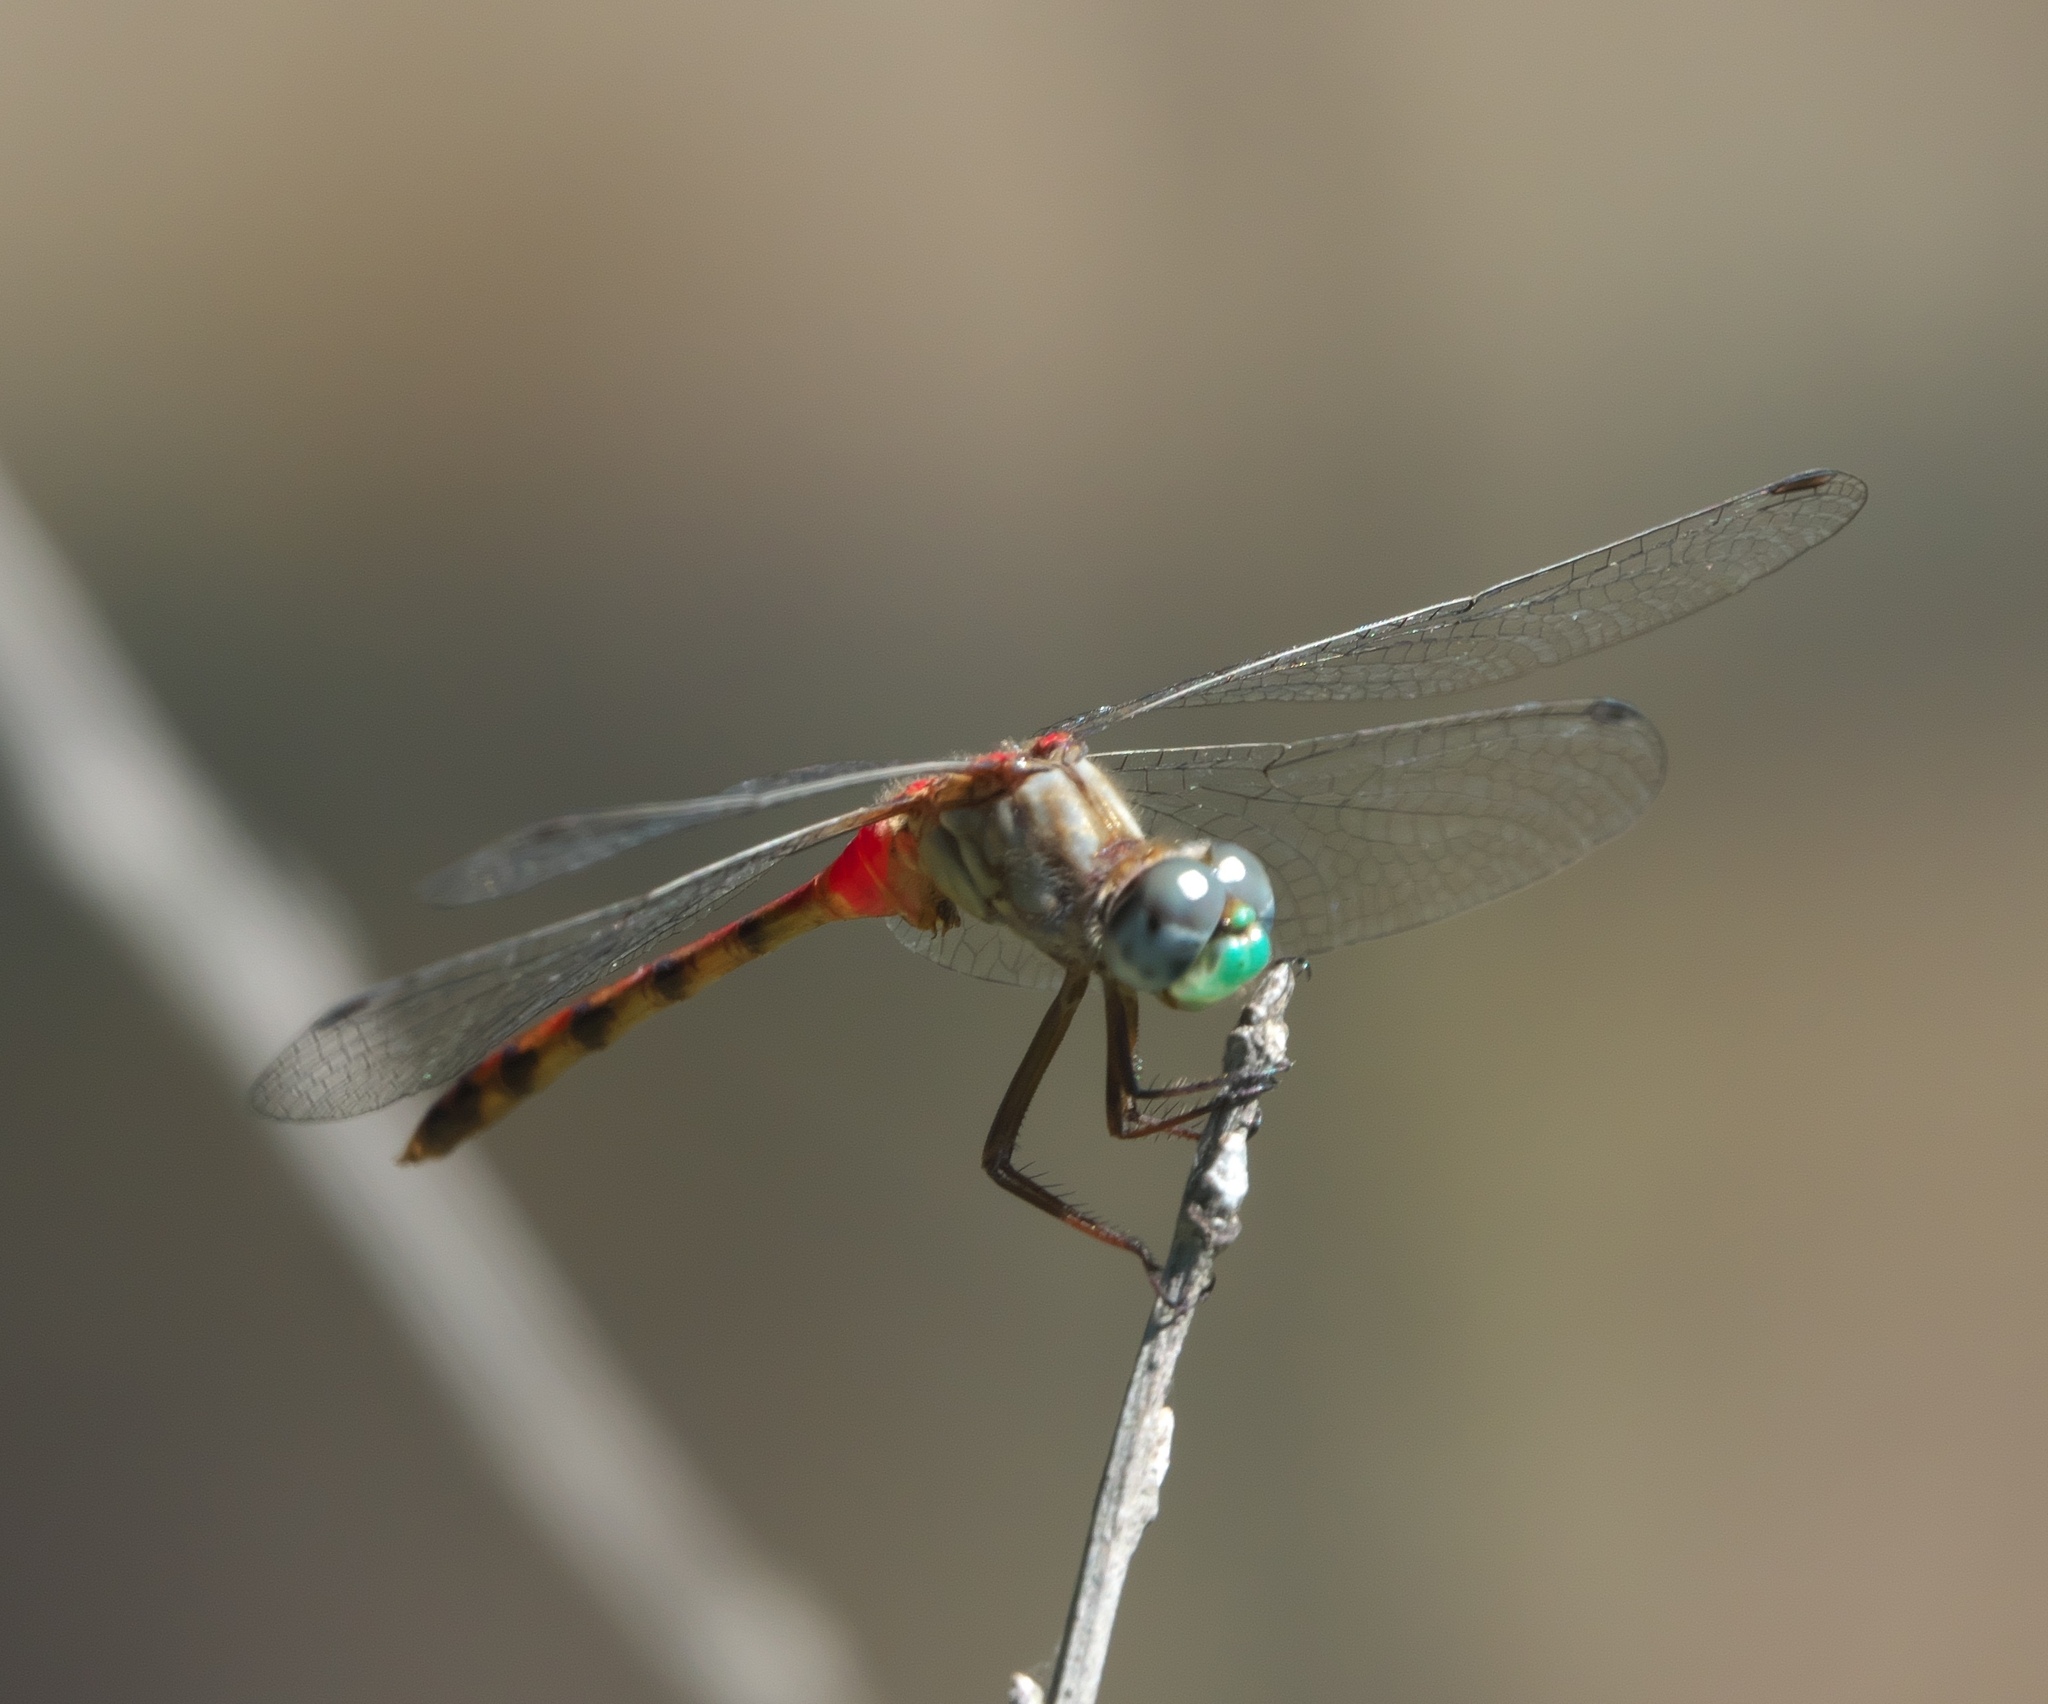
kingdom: Animalia
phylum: Arthropoda
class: Insecta
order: Odonata
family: Libellulidae
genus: Sympetrum
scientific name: Sympetrum ambiguum
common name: Blue-faced meadowhawk
